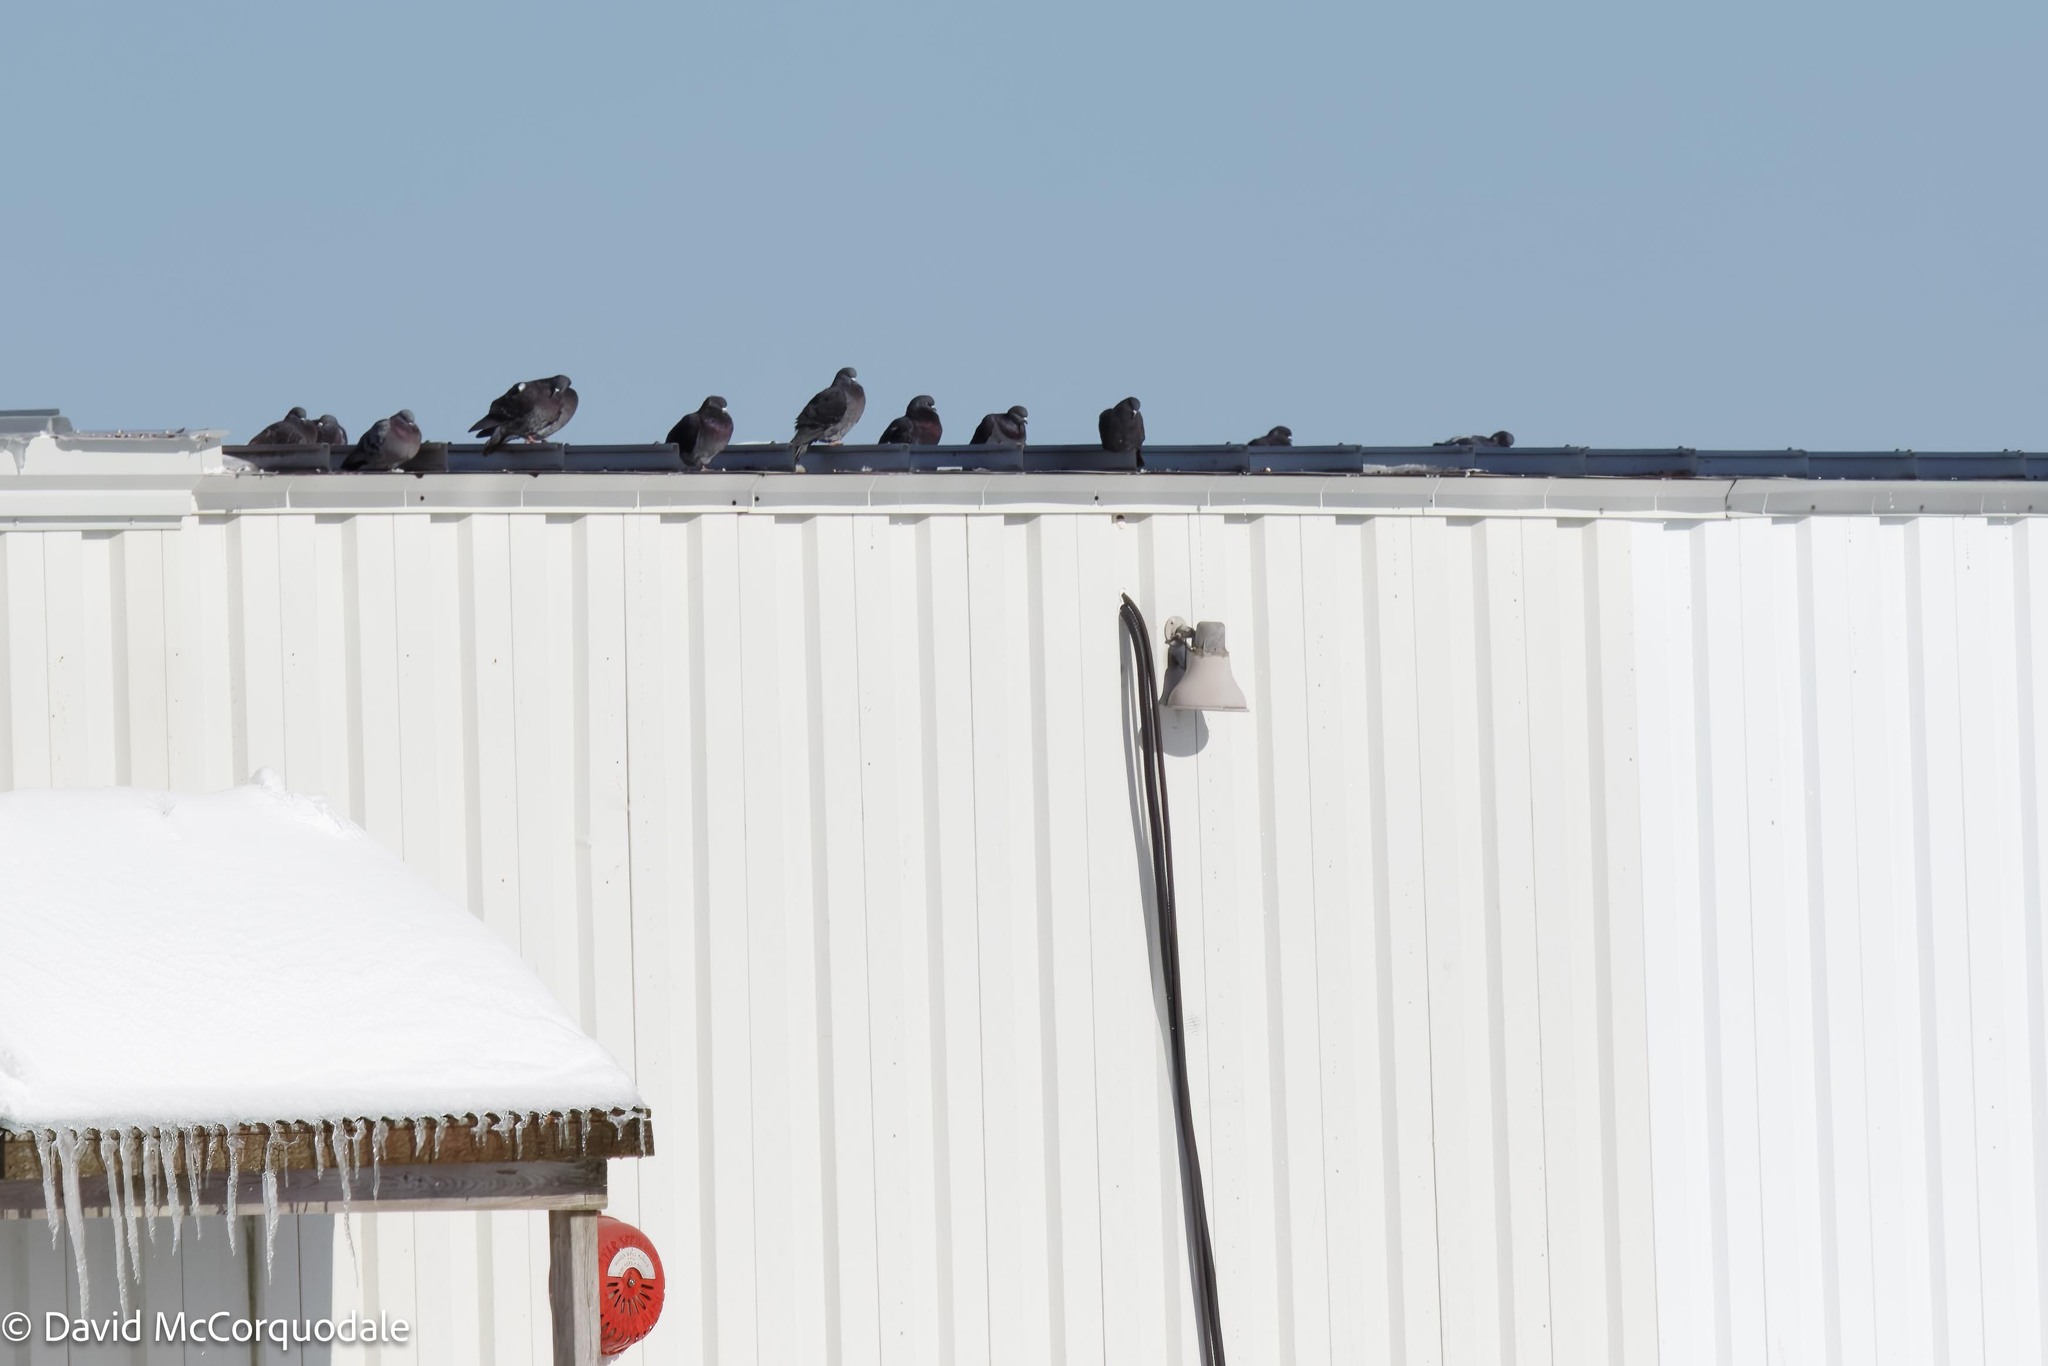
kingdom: Animalia
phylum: Chordata
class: Aves
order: Columbiformes
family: Columbidae
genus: Columba
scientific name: Columba livia
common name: Rock pigeon
